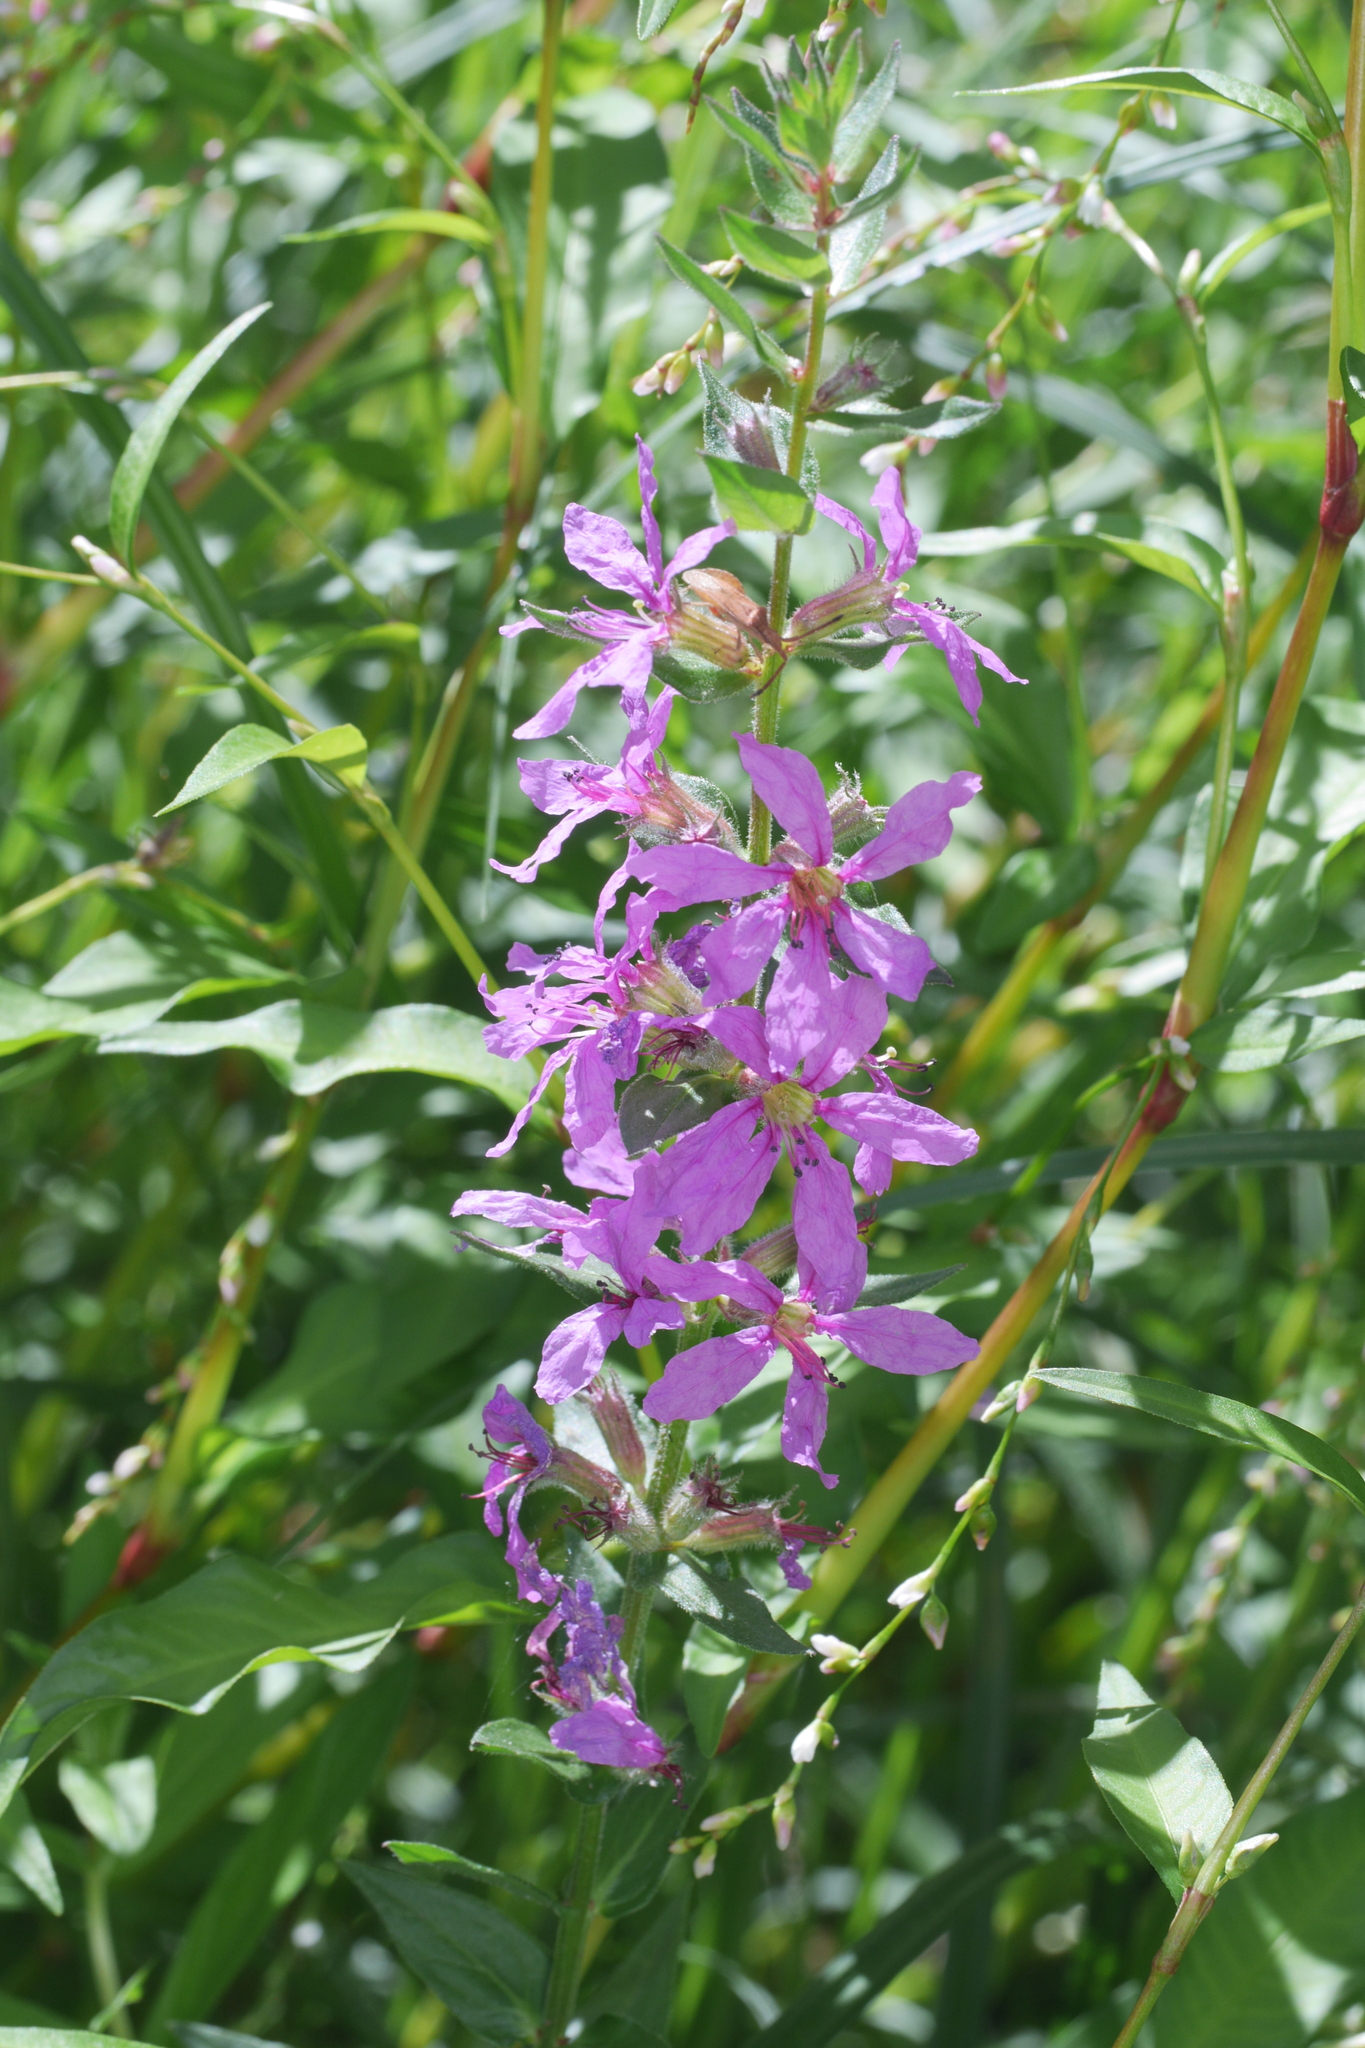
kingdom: Plantae
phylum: Tracheophyta
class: Magnoliopsida
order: Myrtales
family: Lythraceae
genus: Lythrum
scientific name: Lythrum salicaria
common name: Purple loosestrife
